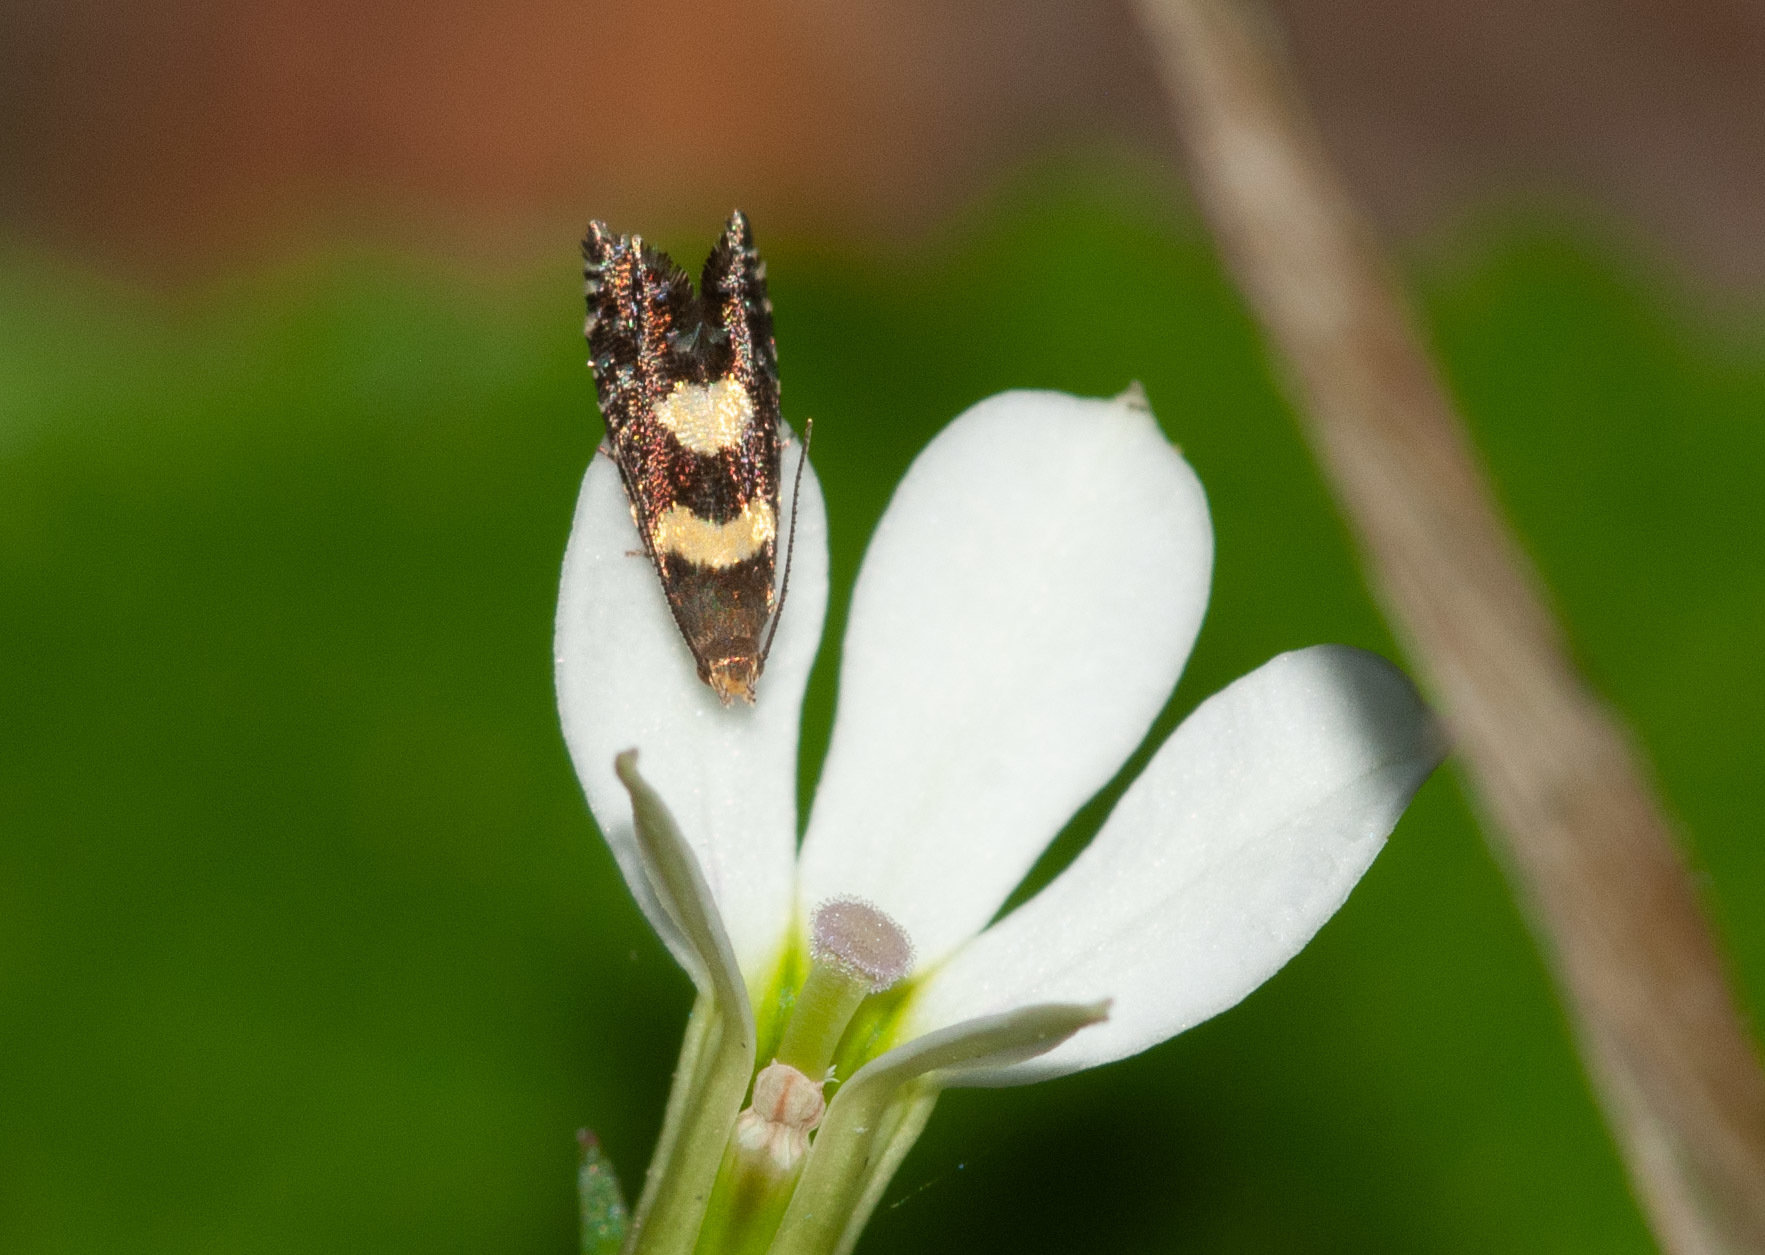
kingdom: Animalia
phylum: Arthropoda
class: Insecta
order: Lepidoptera
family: Glyphipterigidae
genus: Glyphipterix
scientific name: Glyphipterix chrysoplanetis
